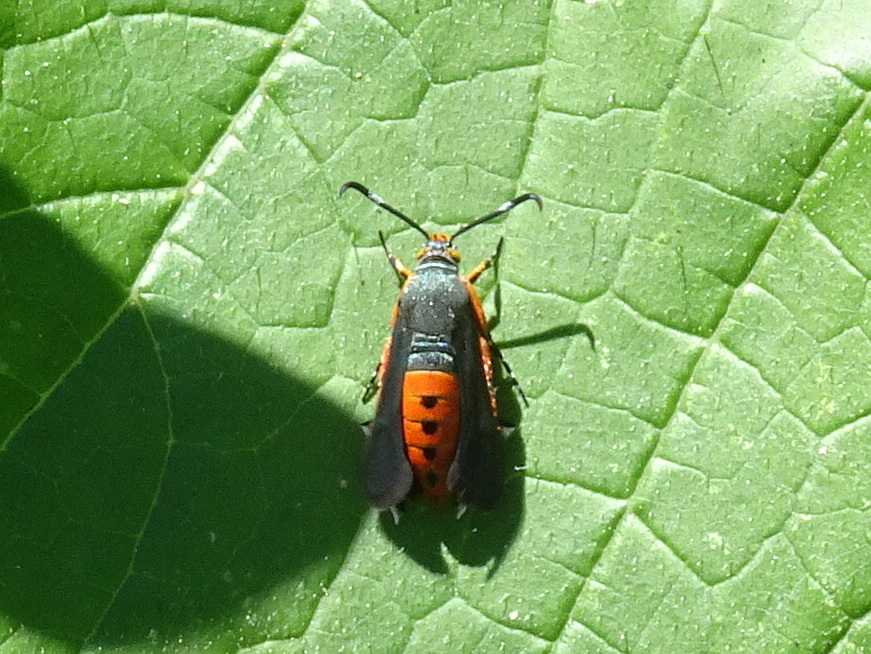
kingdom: Animalia
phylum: Arthropoda
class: Insecta
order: Lepidoptera
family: Sesiidae
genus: Eichlinia
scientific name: Eichlinia cucurbitae
